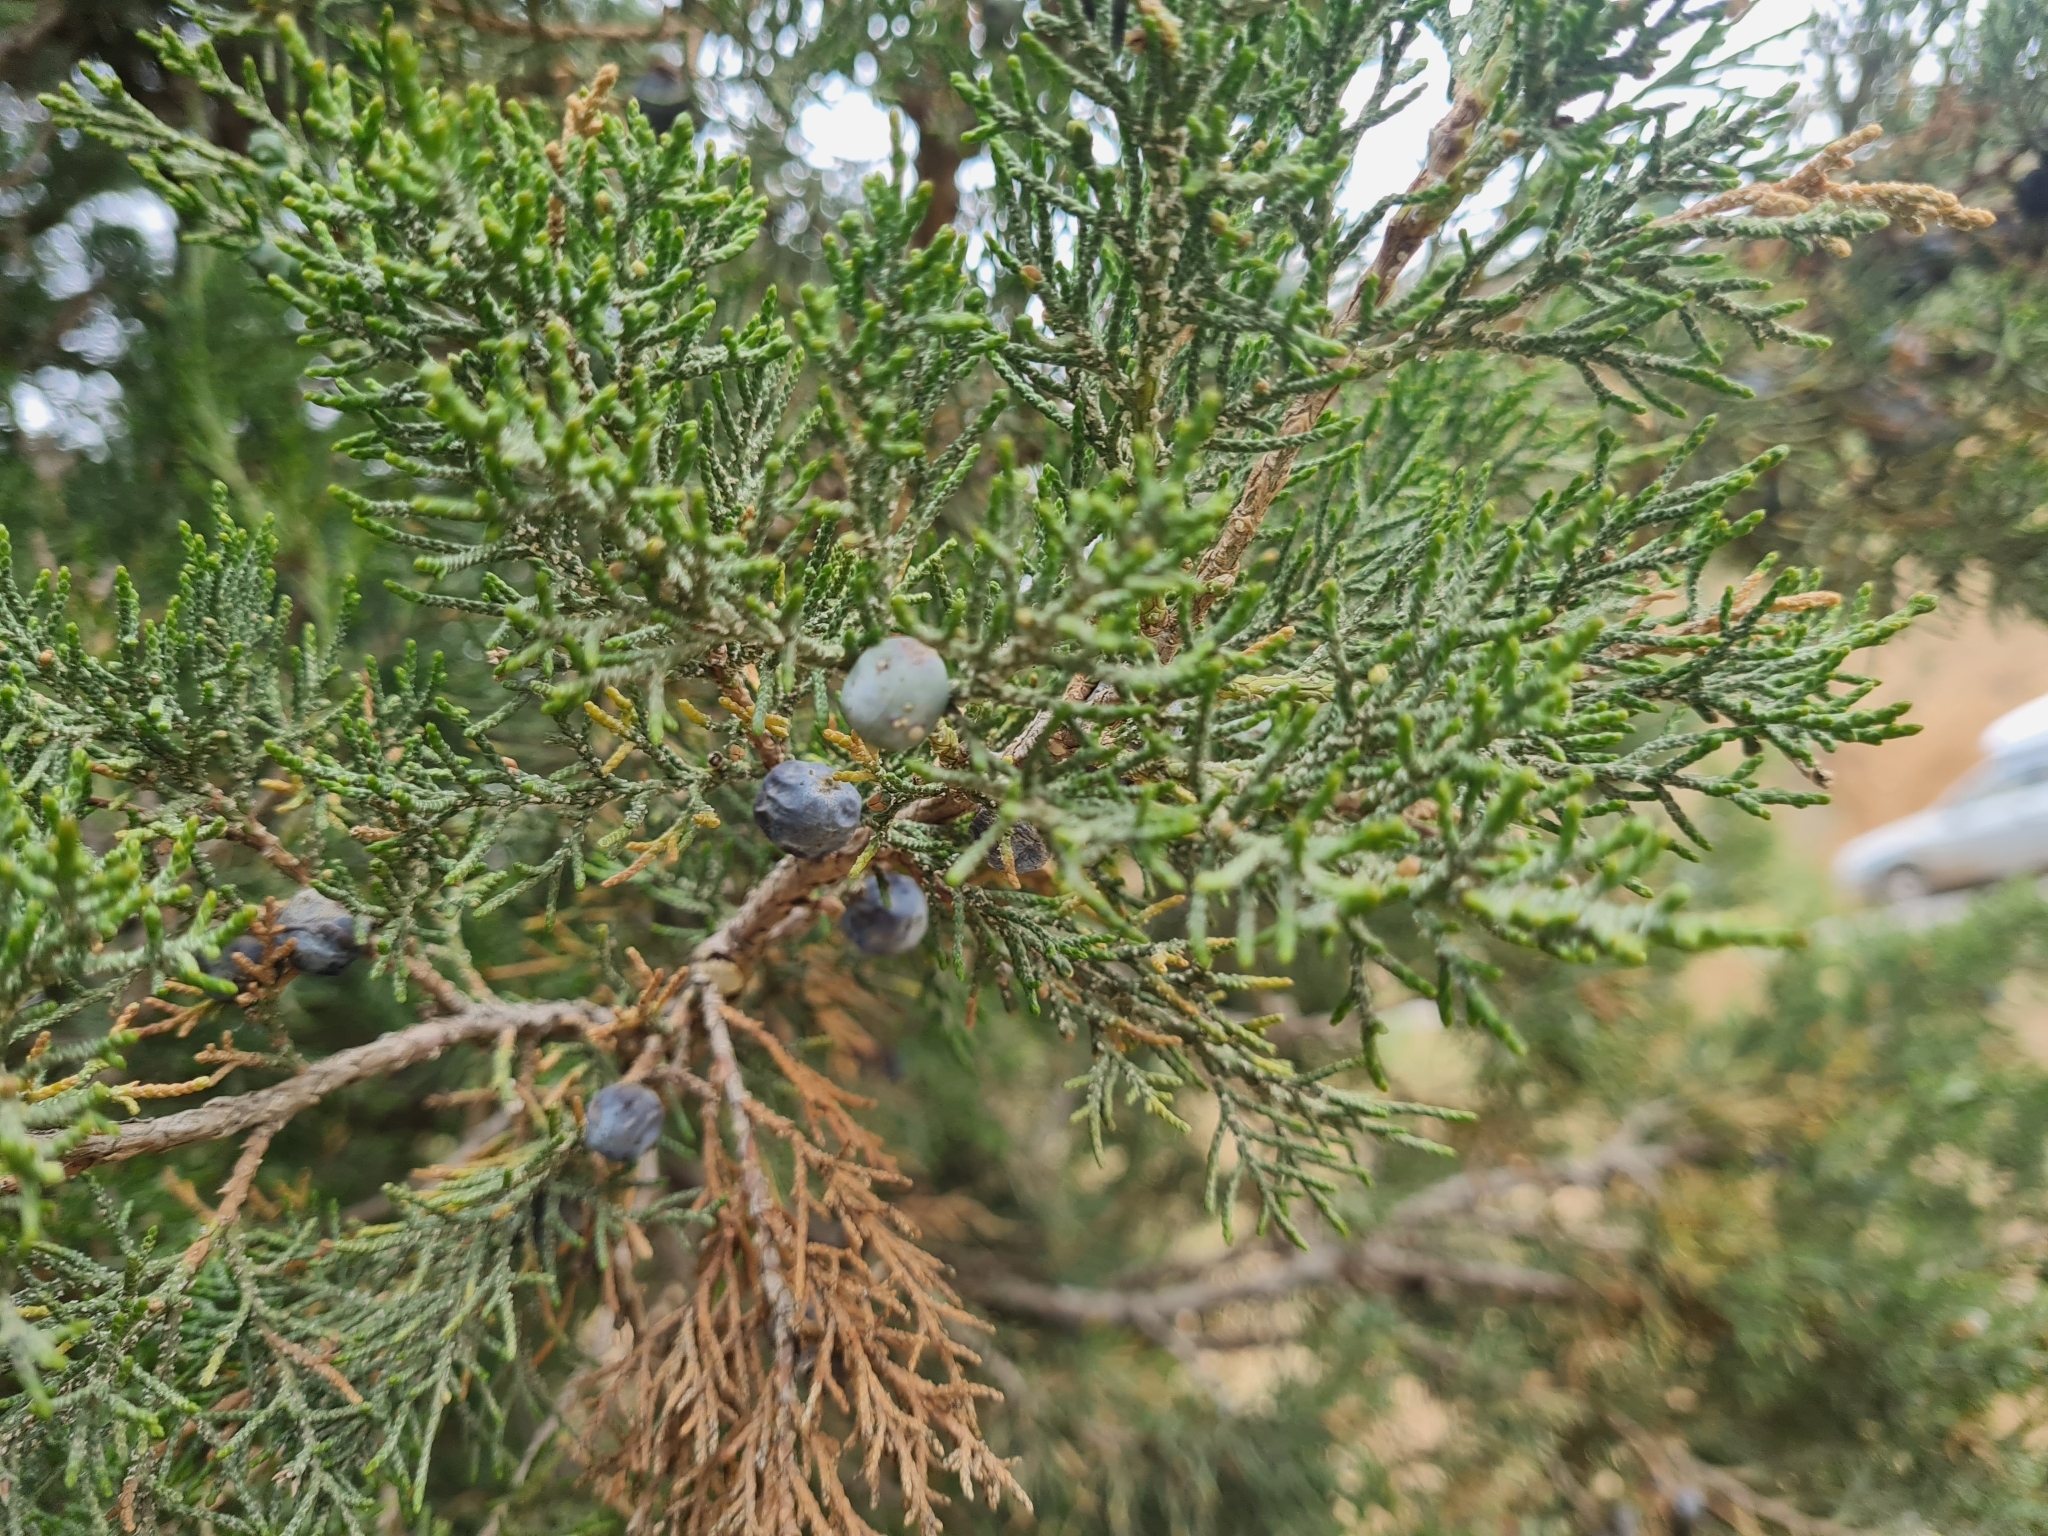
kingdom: Plantae
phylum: Tracheophyta
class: Pinopsida
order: Pinales
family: Cupressaceae
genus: Juniperus
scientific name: Juniperus excelsa
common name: Crimean juniper
